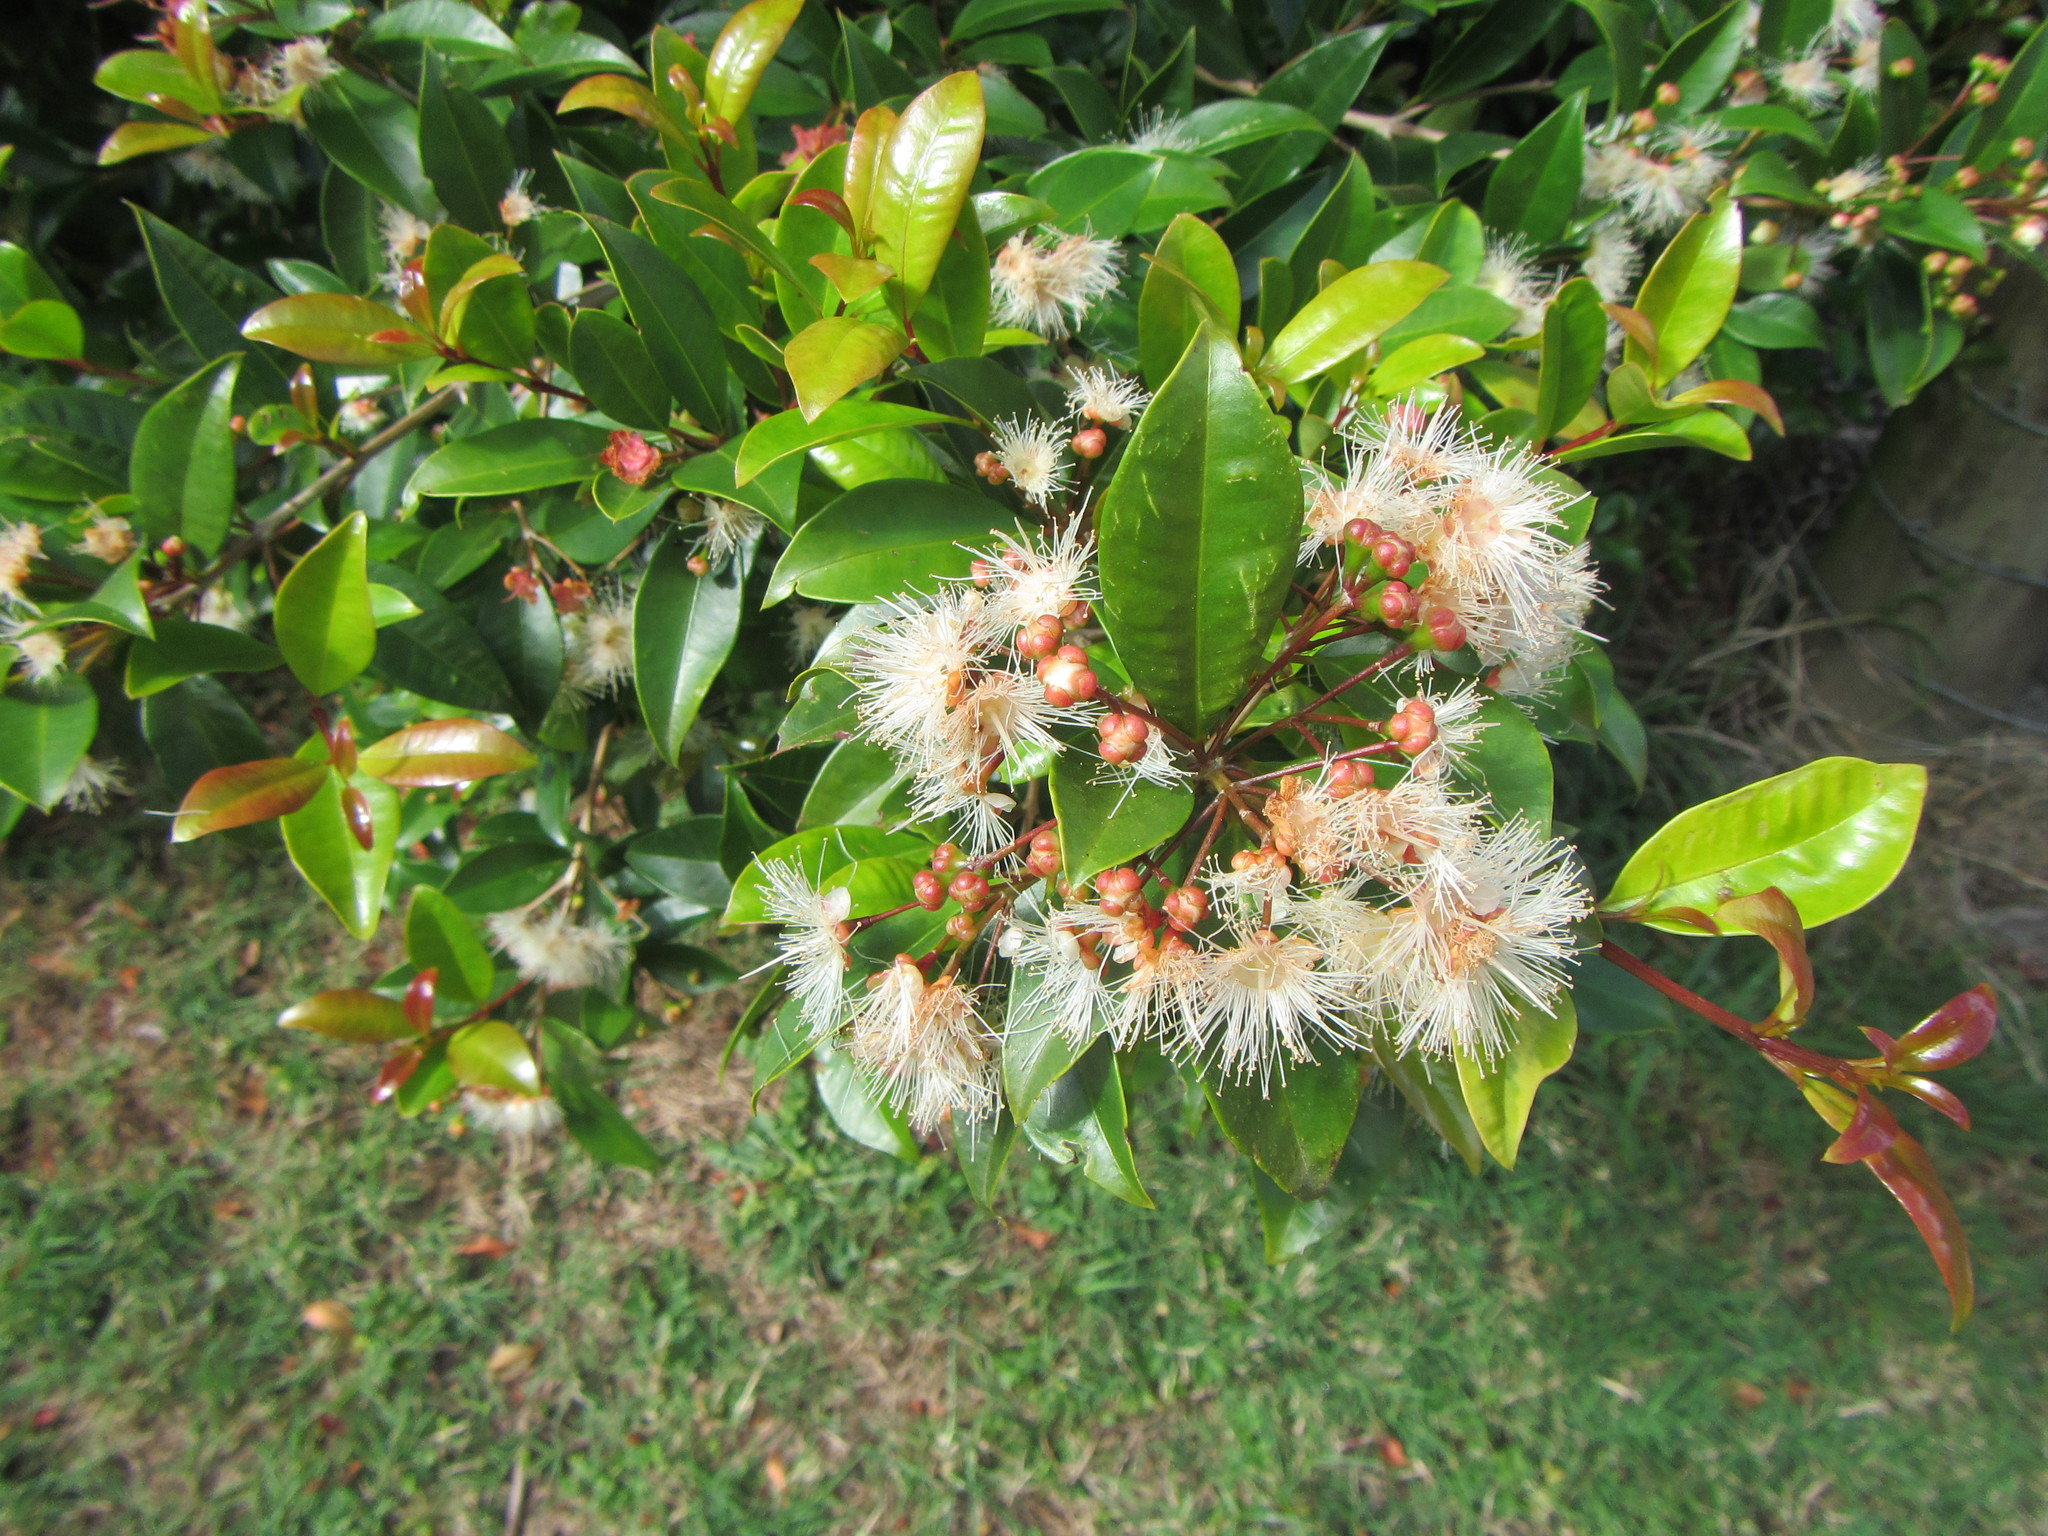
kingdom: Plantae
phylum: Tracheophyta
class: Magnoliopsida
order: Myrtales
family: Myrtaceae
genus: Syzygium
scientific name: Syzygium paniculatum
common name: Magenta lilly-pilly
